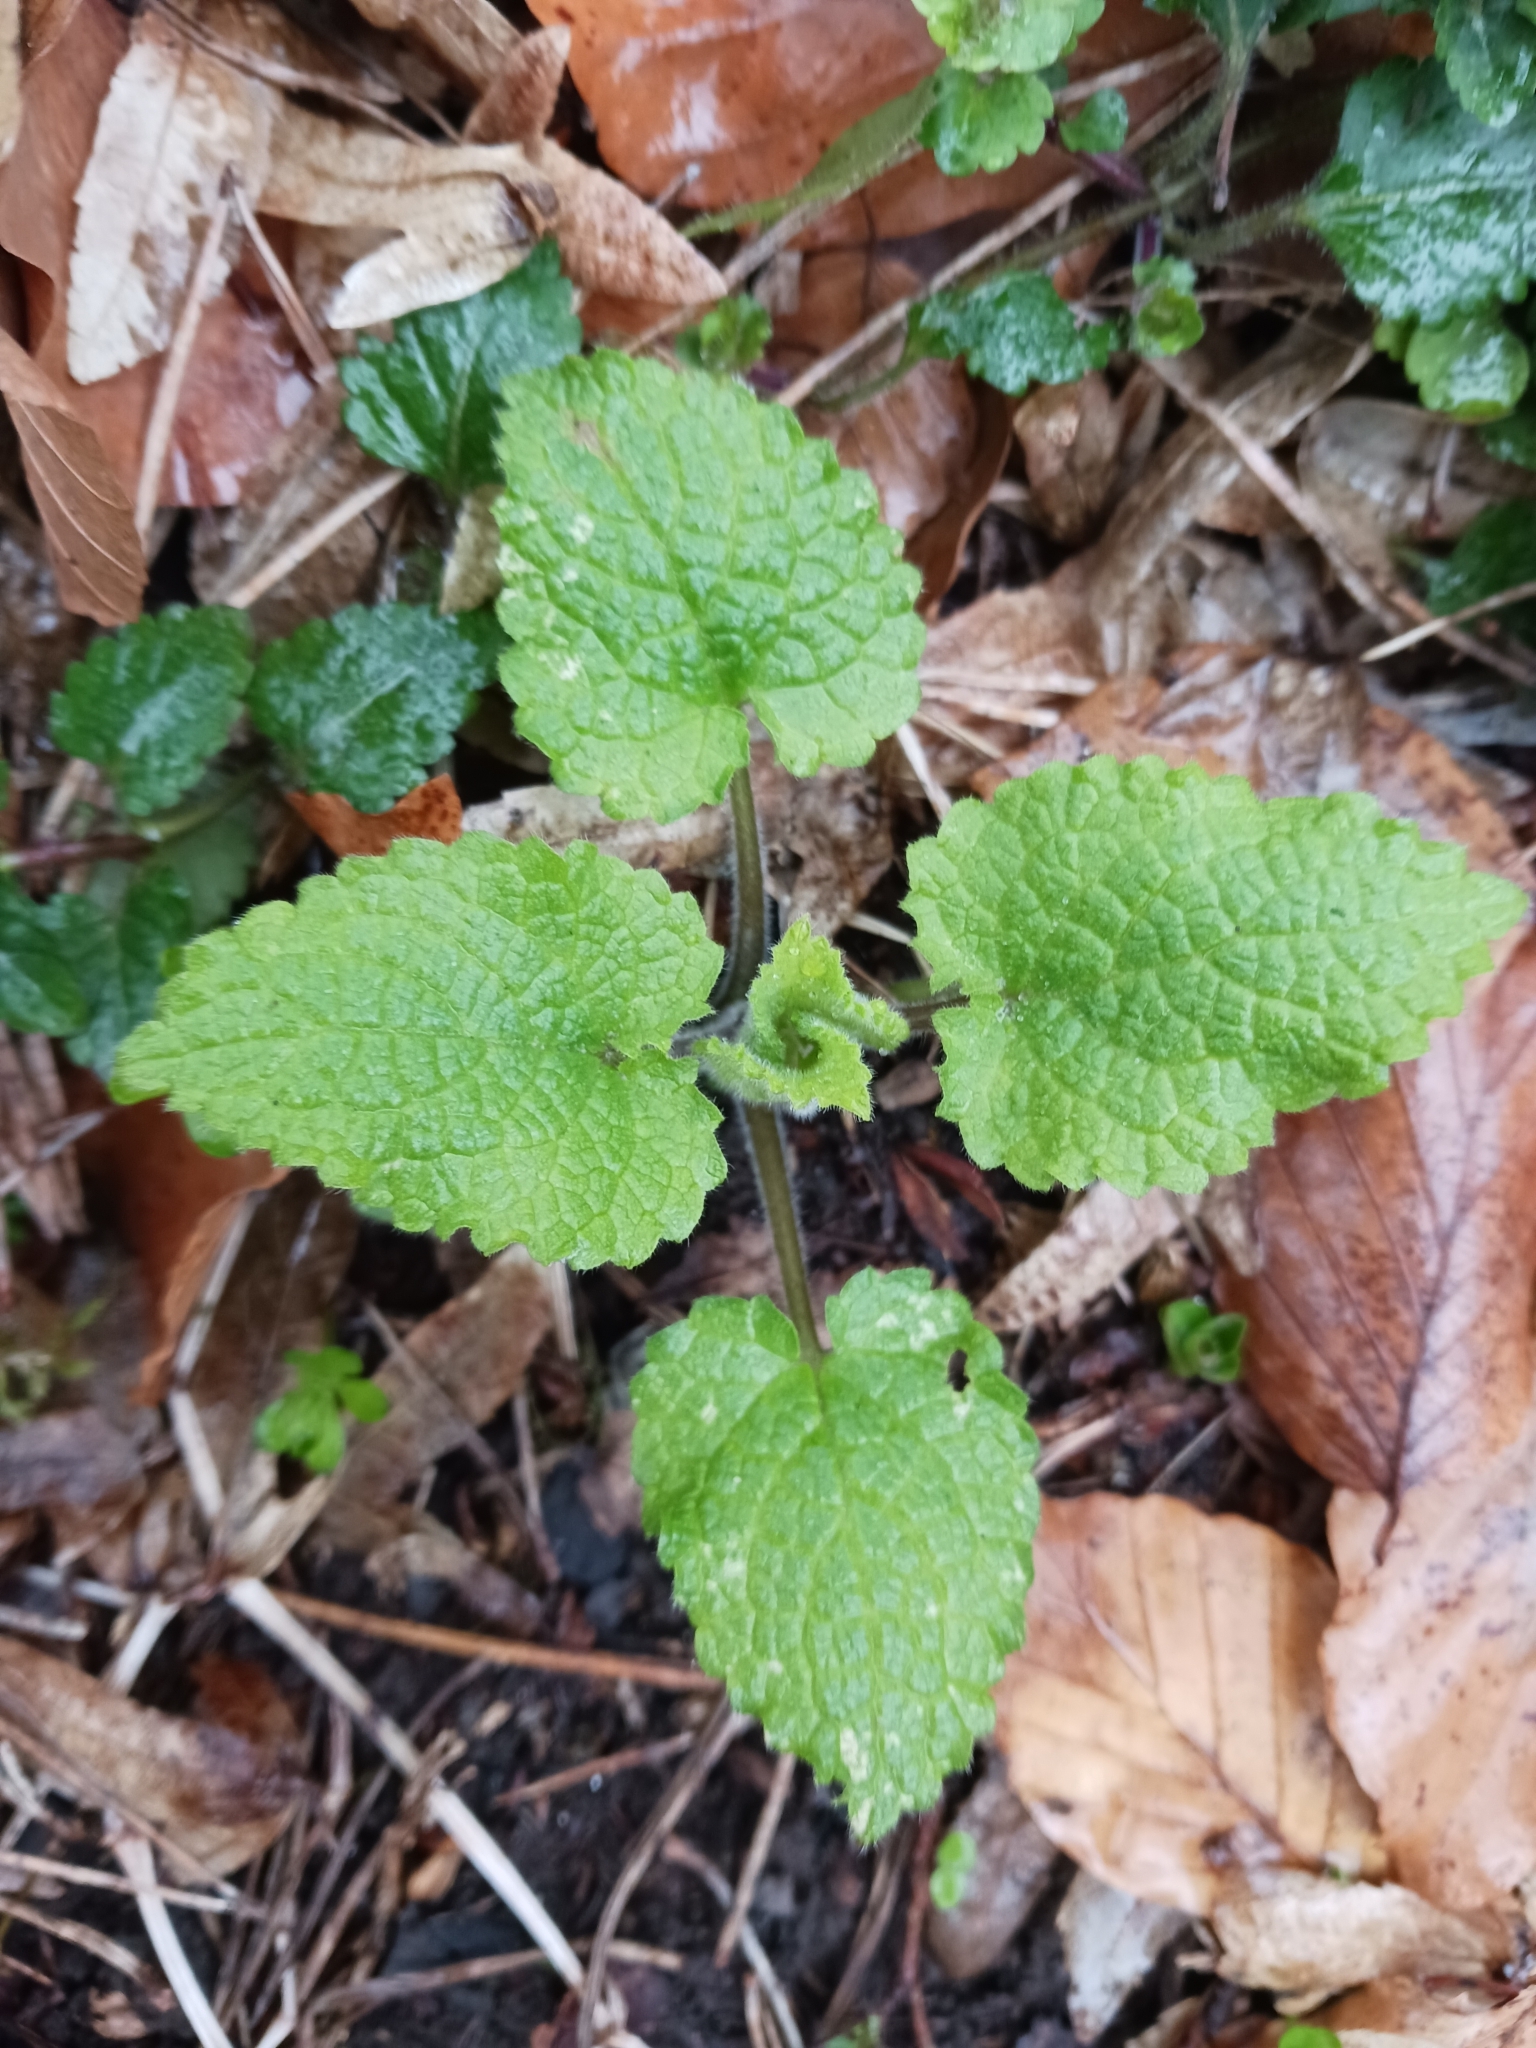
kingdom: Plantae
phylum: Tracheophyta
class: Magnoliopsida
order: Lamiales
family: Lamiaceae
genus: Stachys
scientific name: Stachys sylvatica
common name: Hedge woundwort
